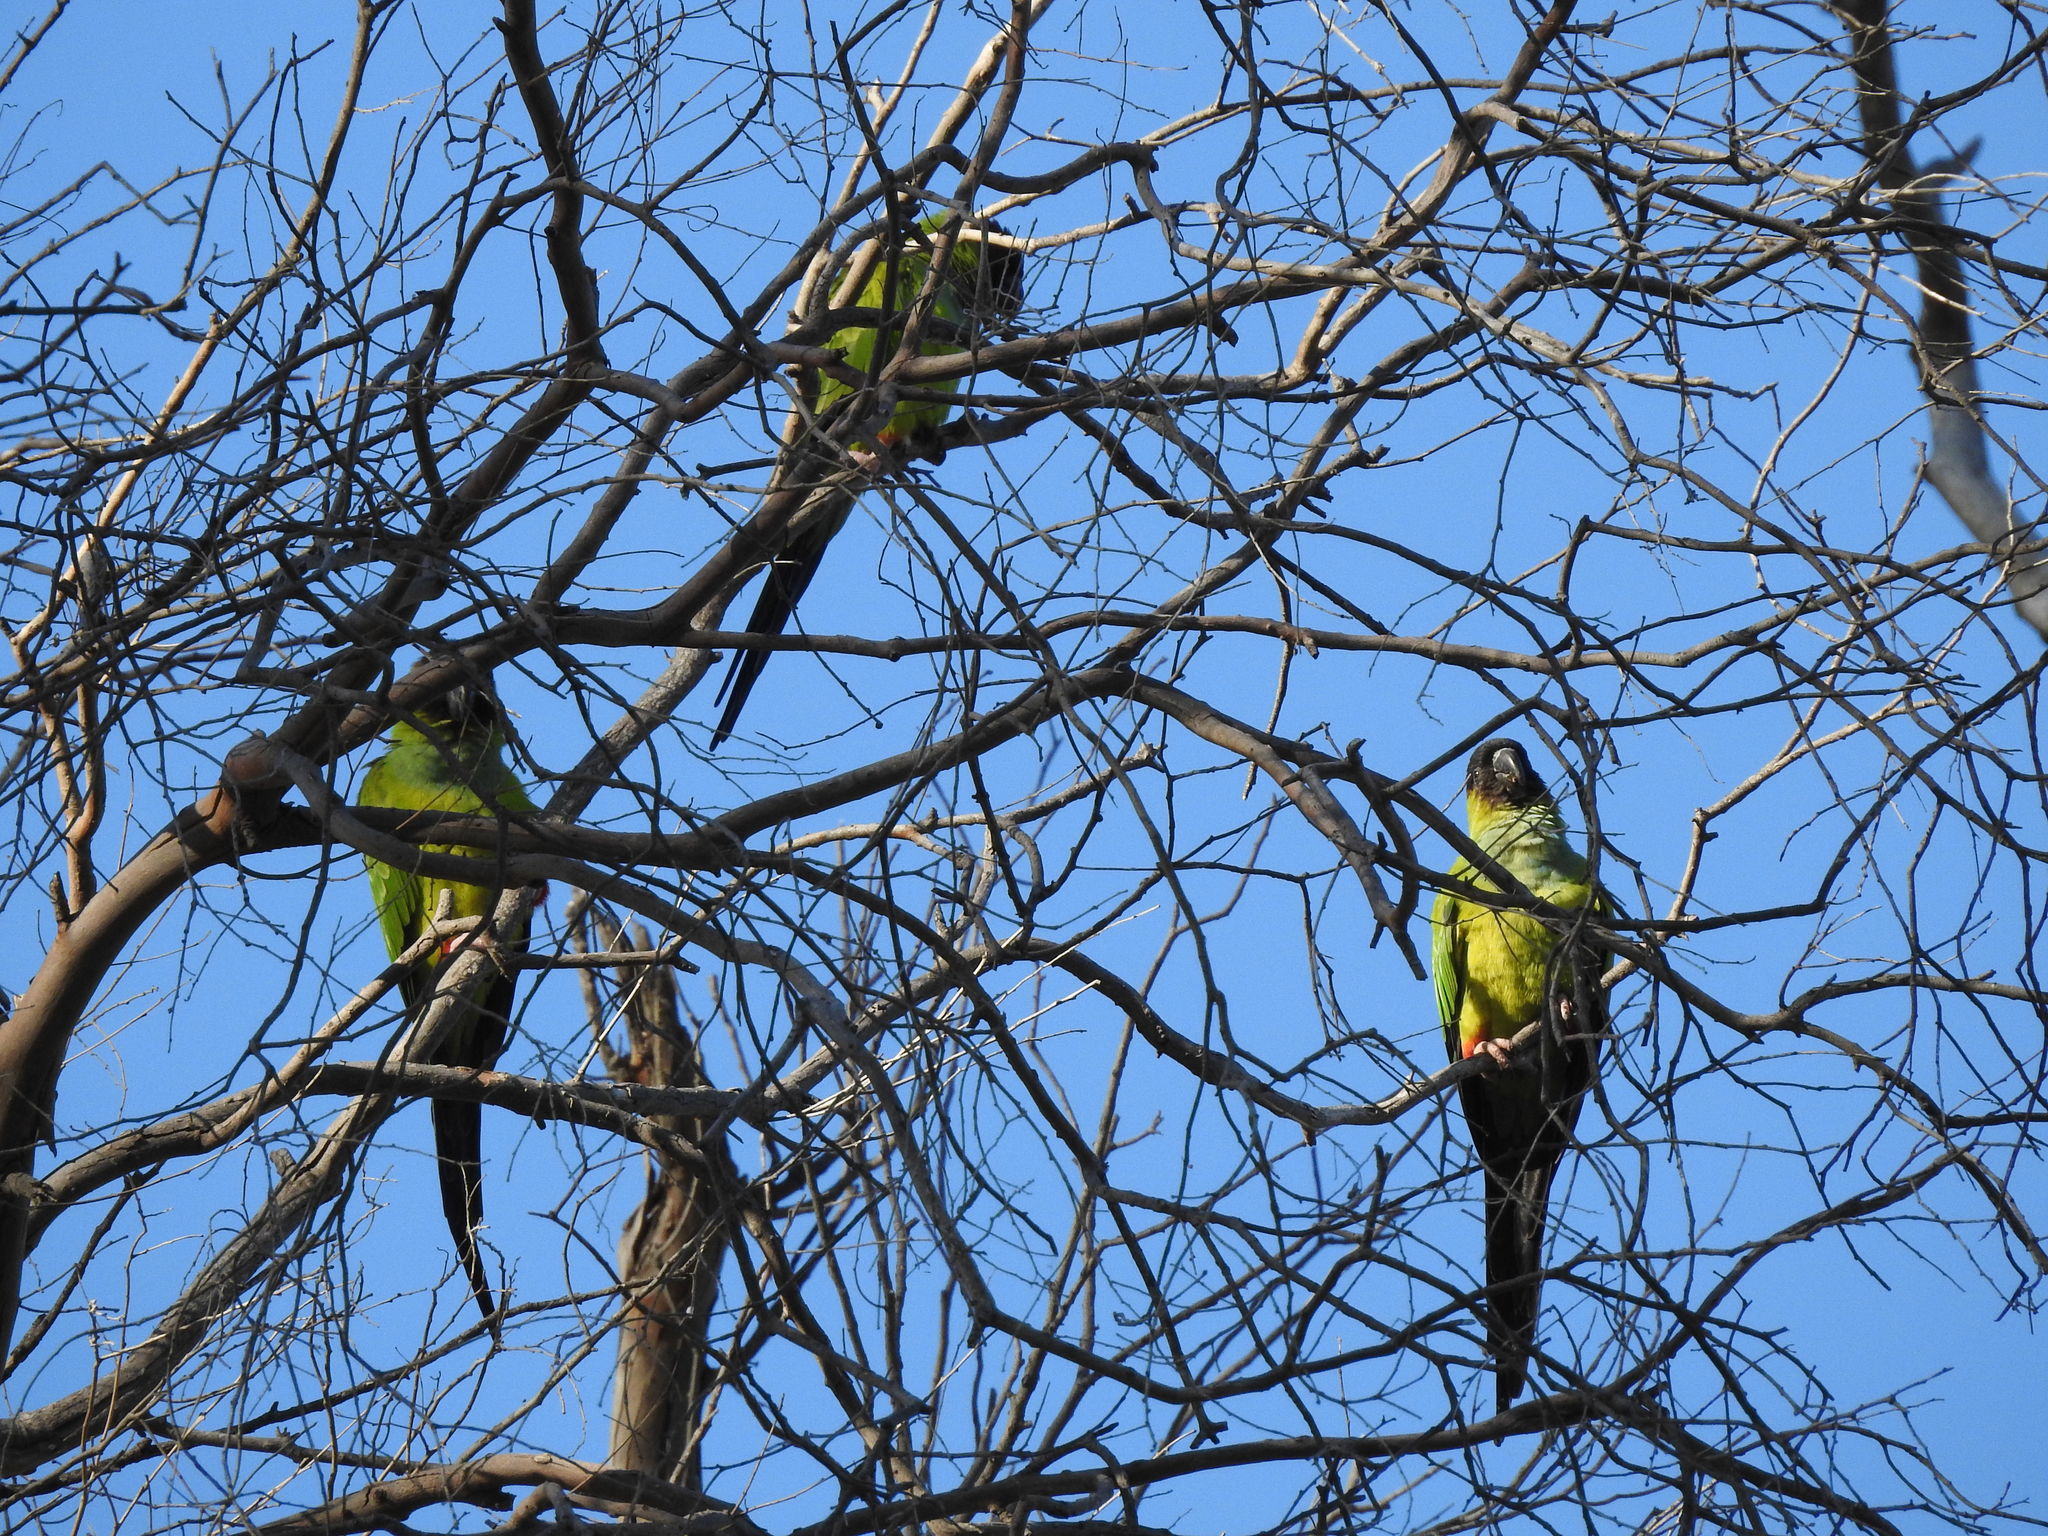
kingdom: Animalia
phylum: Chordata
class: Aves
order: Psittaciformes
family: Psittacidae
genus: Nandayus
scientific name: Nandayus nenday
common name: Nanday parakeet
